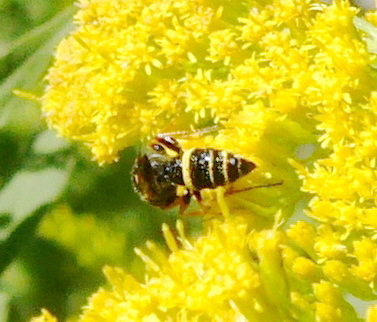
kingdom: Animalia
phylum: Arthropoda
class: Insecta
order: Hymenoptera
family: Crabronidae
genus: Philanthus
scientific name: Philanthus gibbosus
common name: Humped beewolf
